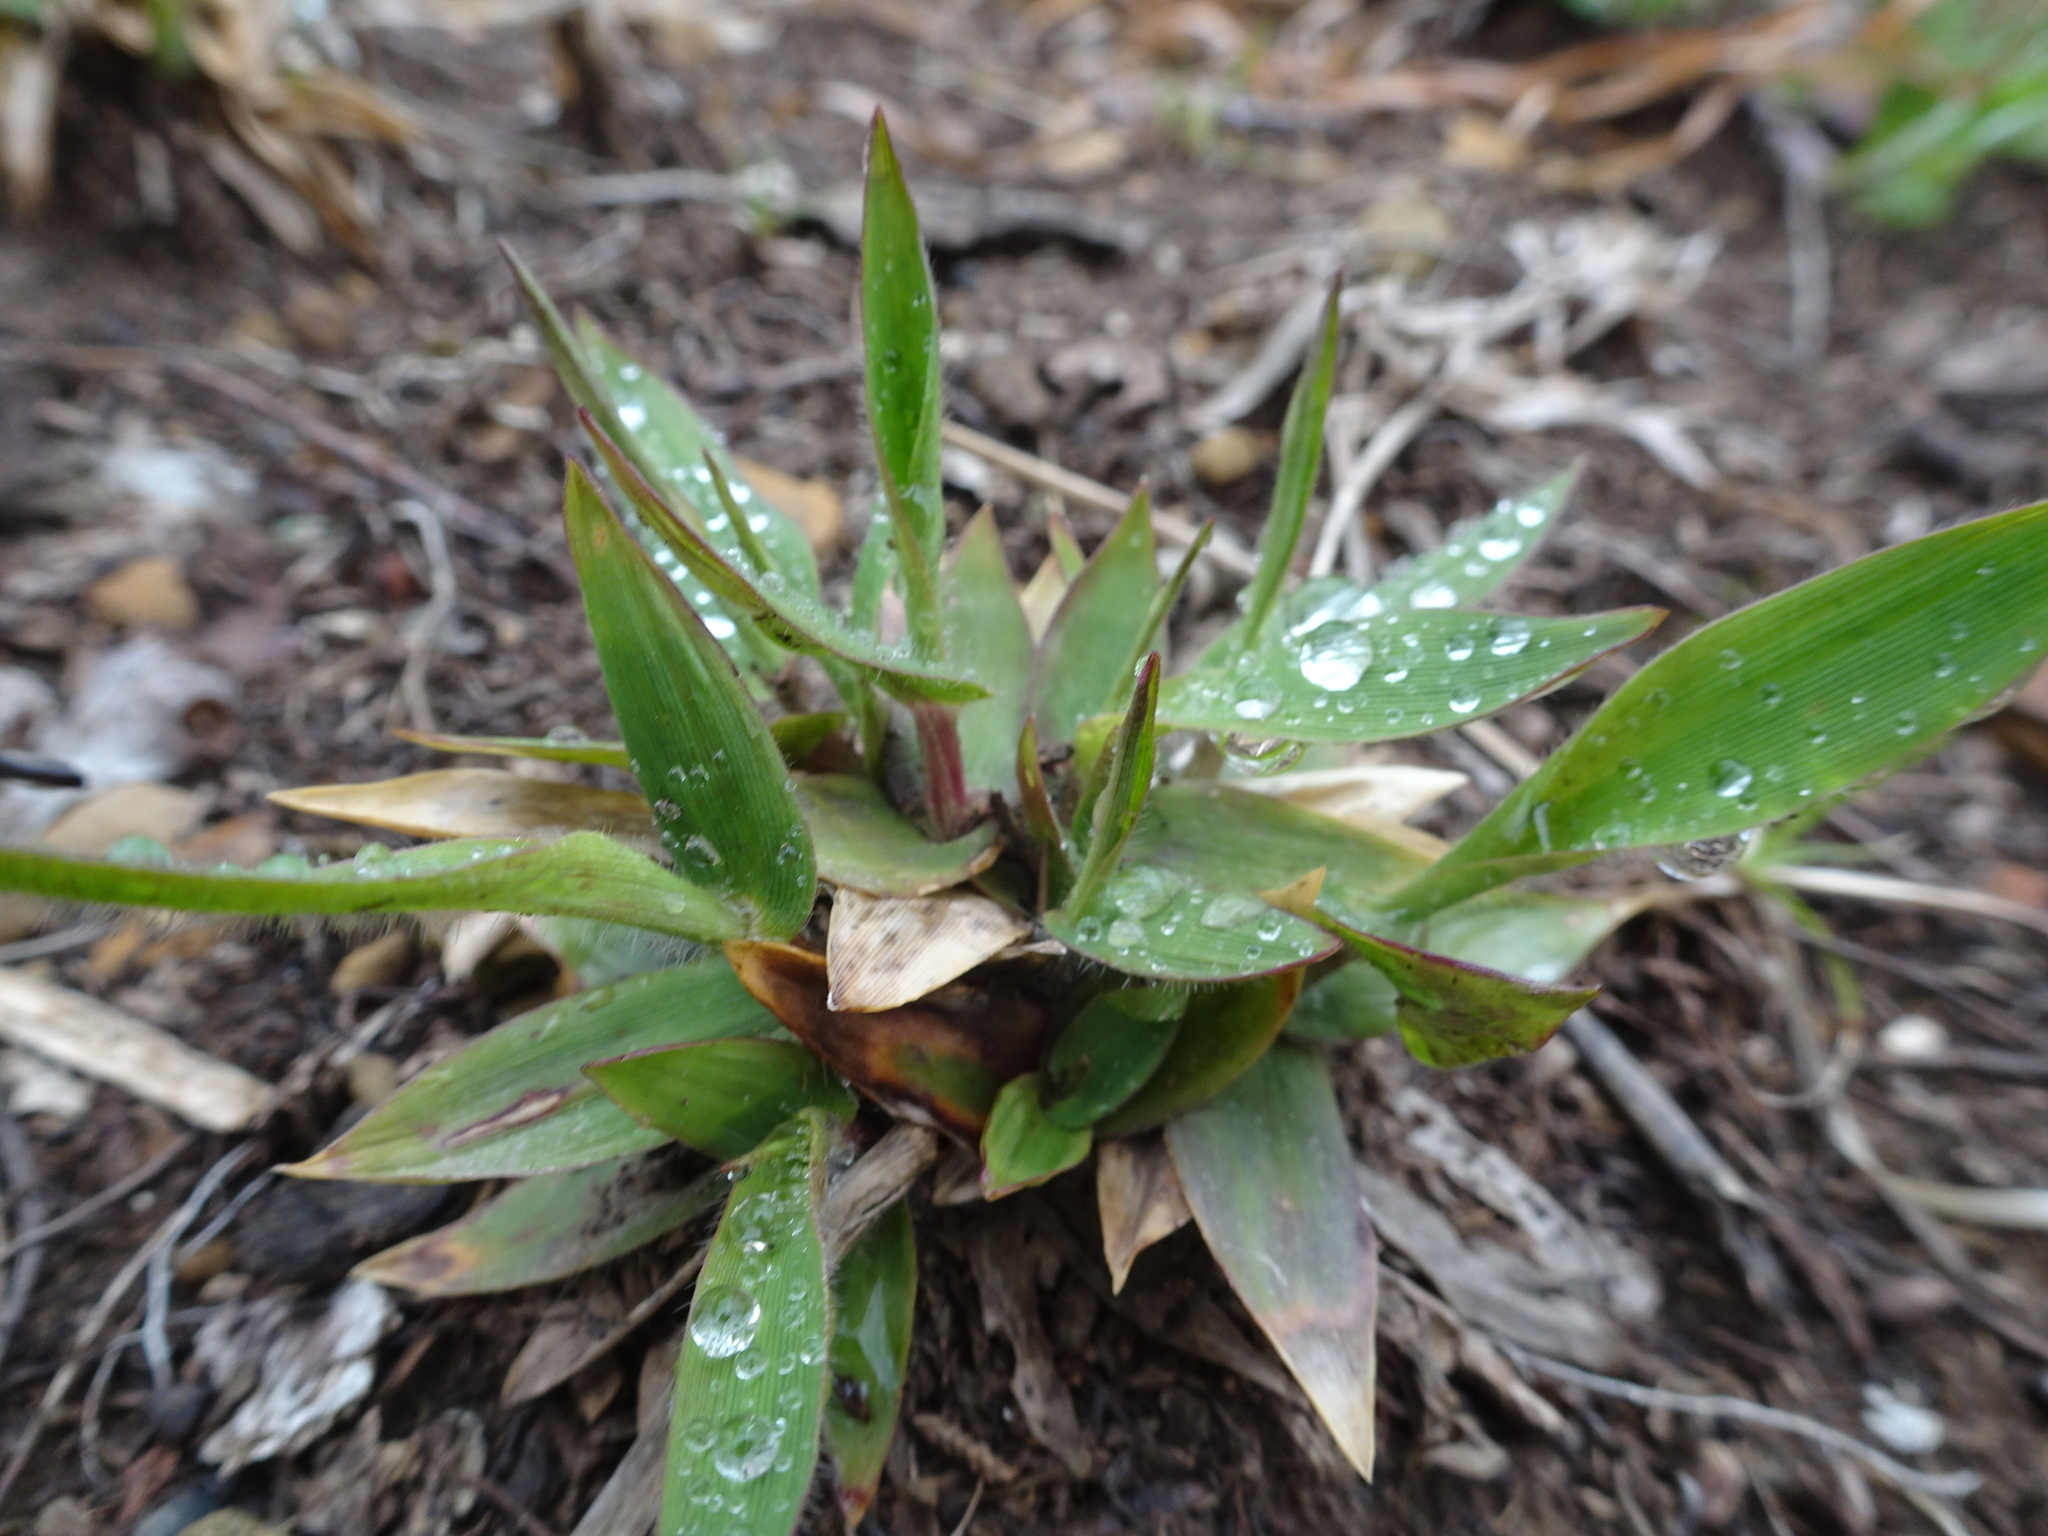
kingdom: Plantae
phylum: Tracheophyta
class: Liliopsida
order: Poales
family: Poaceae
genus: Dichanthelium
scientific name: Dichanthelium
